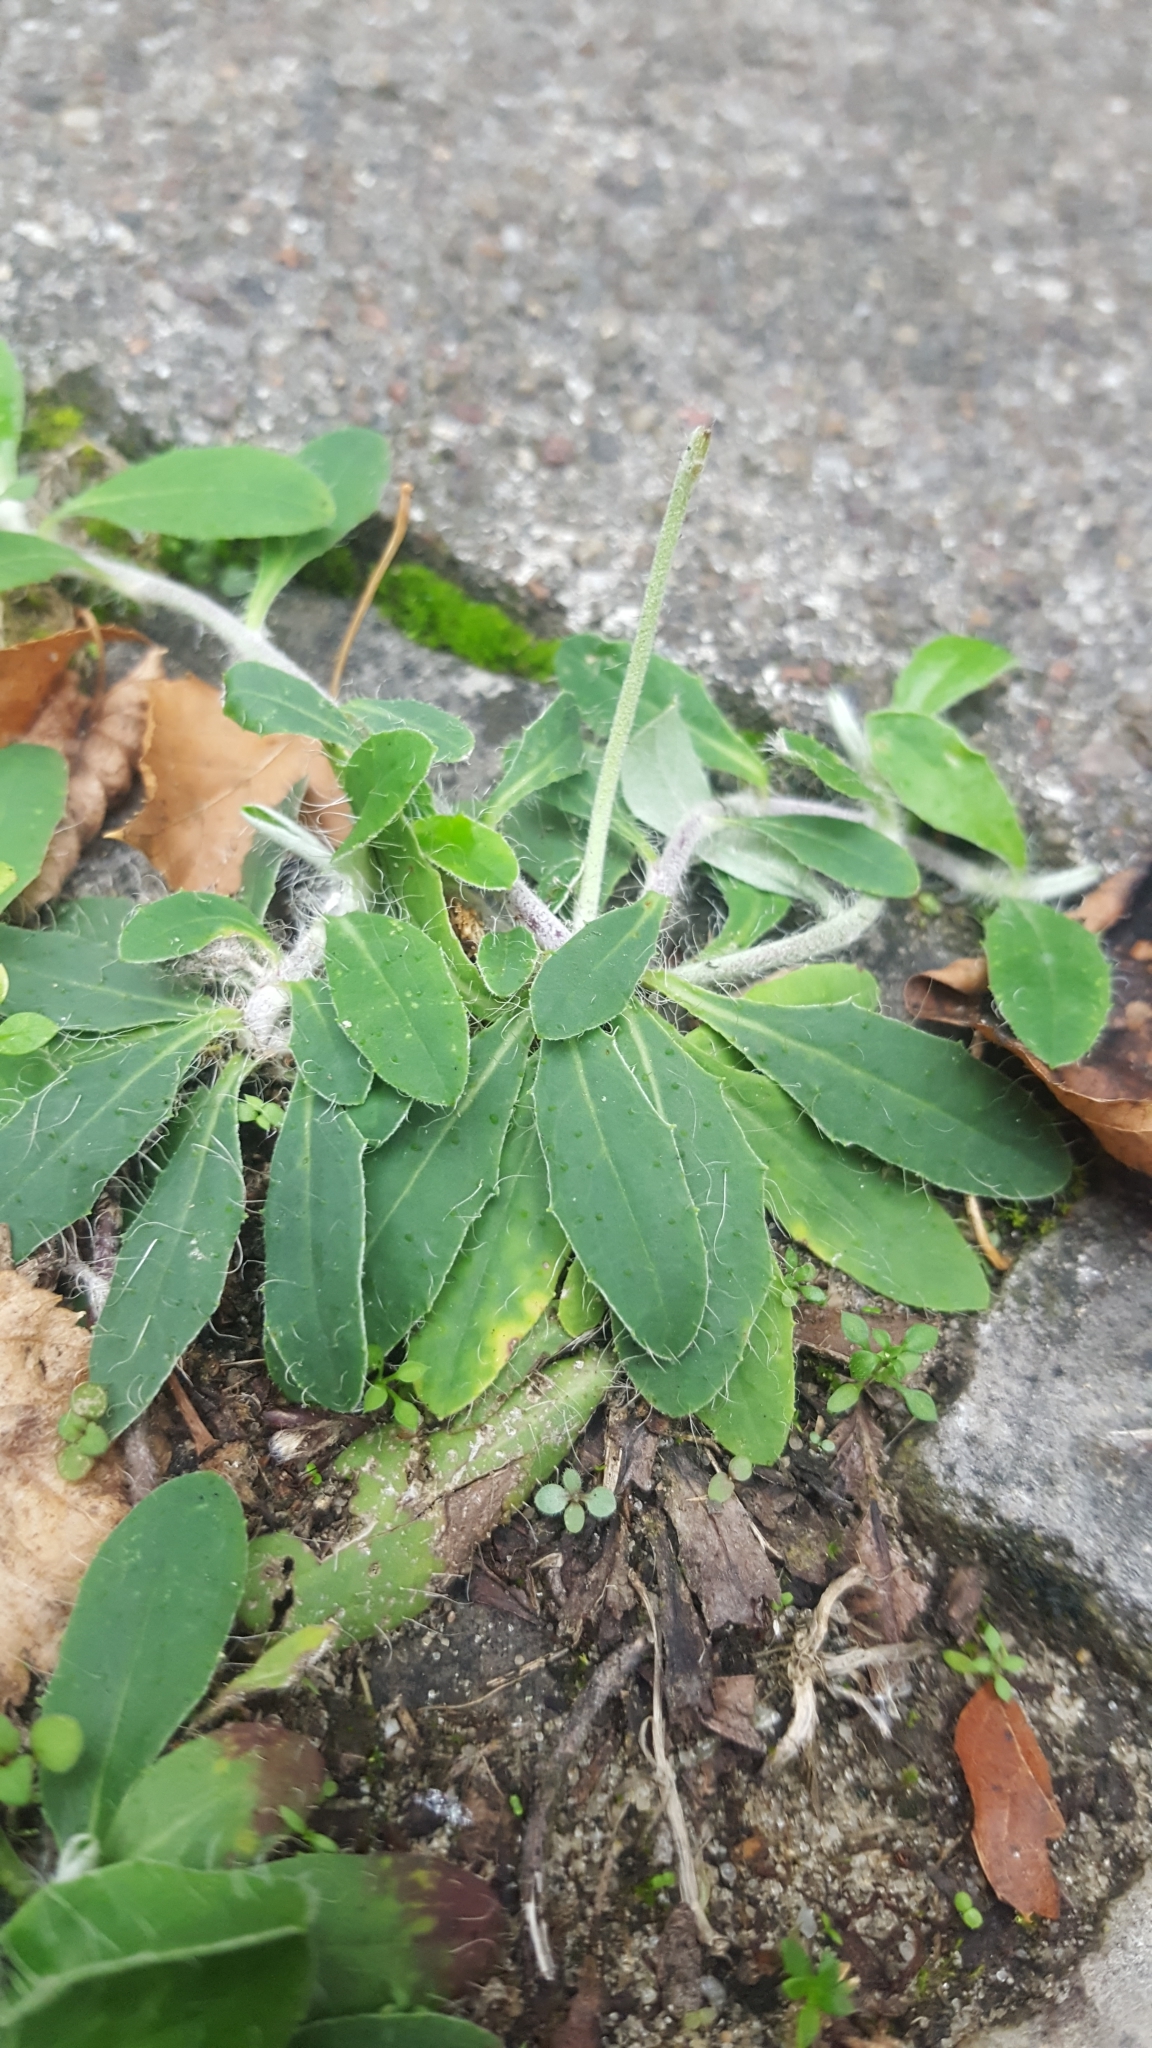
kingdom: Plantae
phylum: Tracheophyta
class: Magnoliopsida
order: Asterales
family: Asteraceae
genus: Pilosella
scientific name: Pilosella officinarum
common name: Mouse-ear hawkweed
